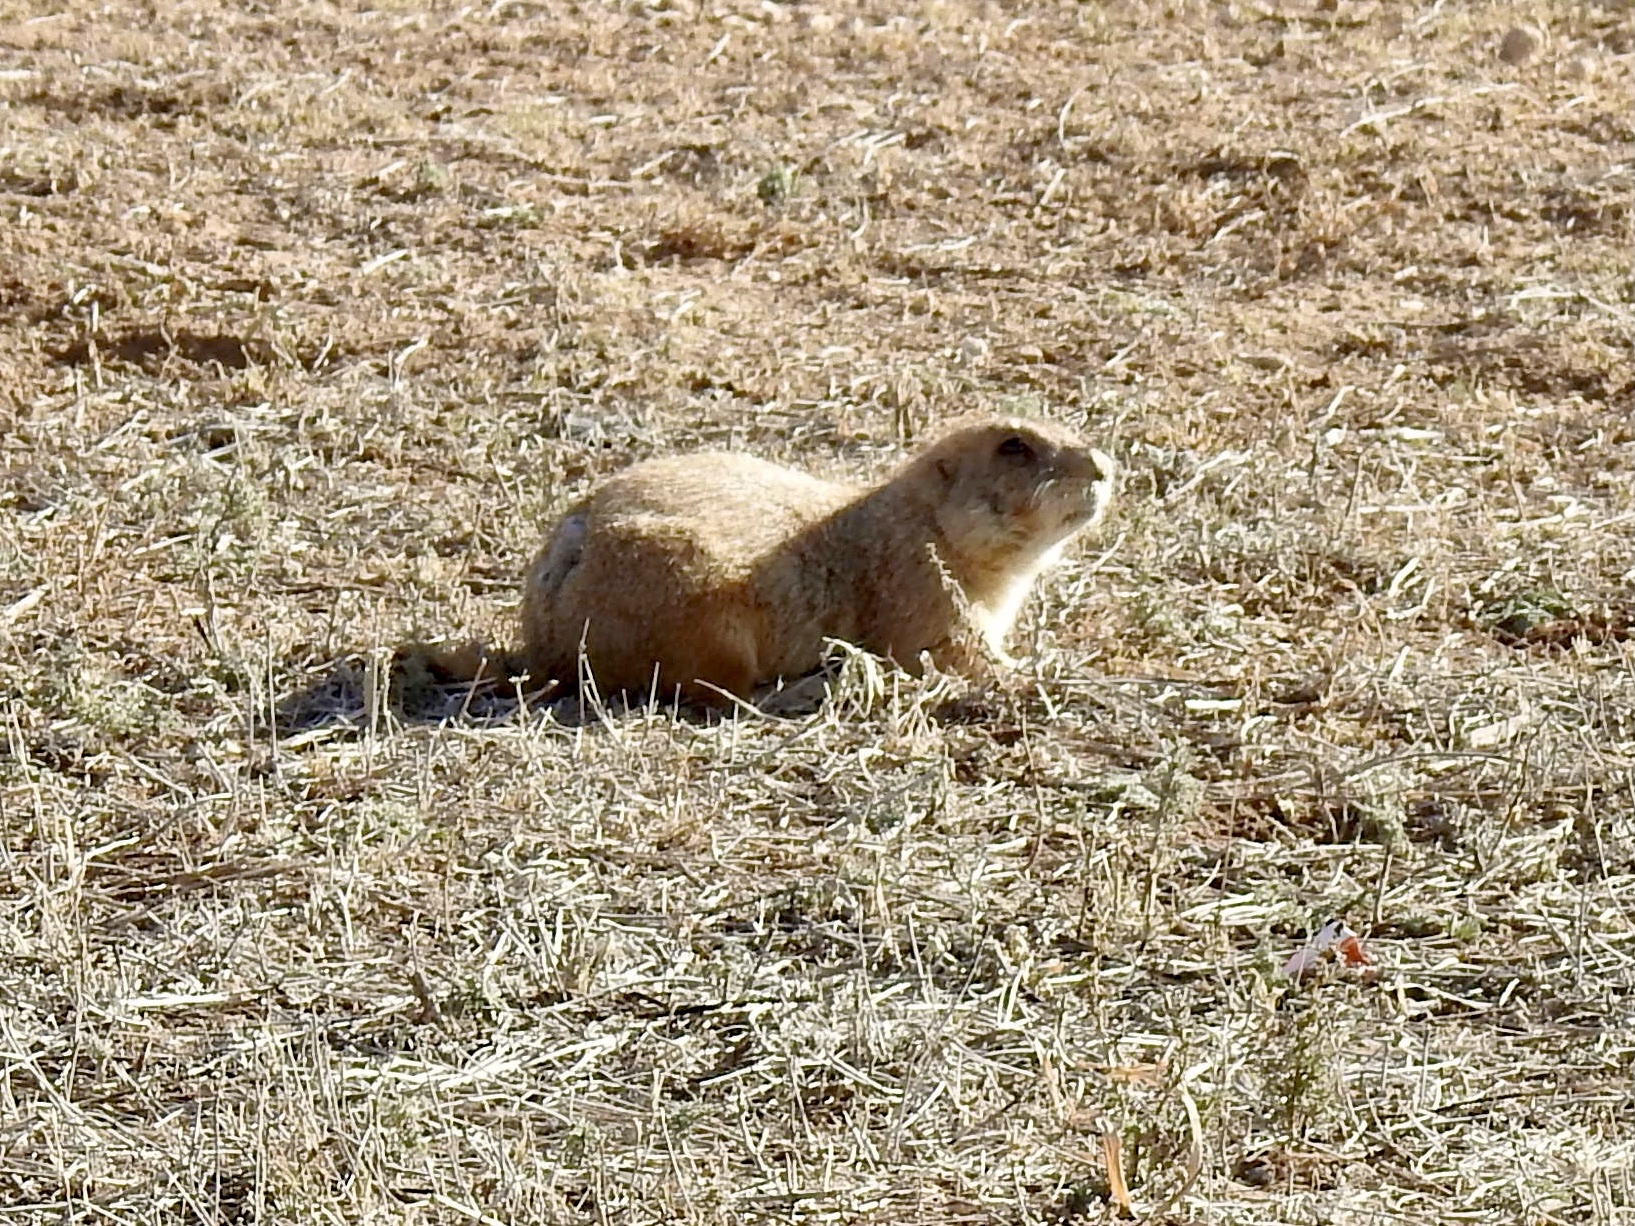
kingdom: Animalia
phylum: Chordata
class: Mammalia
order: Rodentia
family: Sciuridae
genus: Cynomys
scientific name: Cynomys ludovicianus
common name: Black-tailed prairie dog
